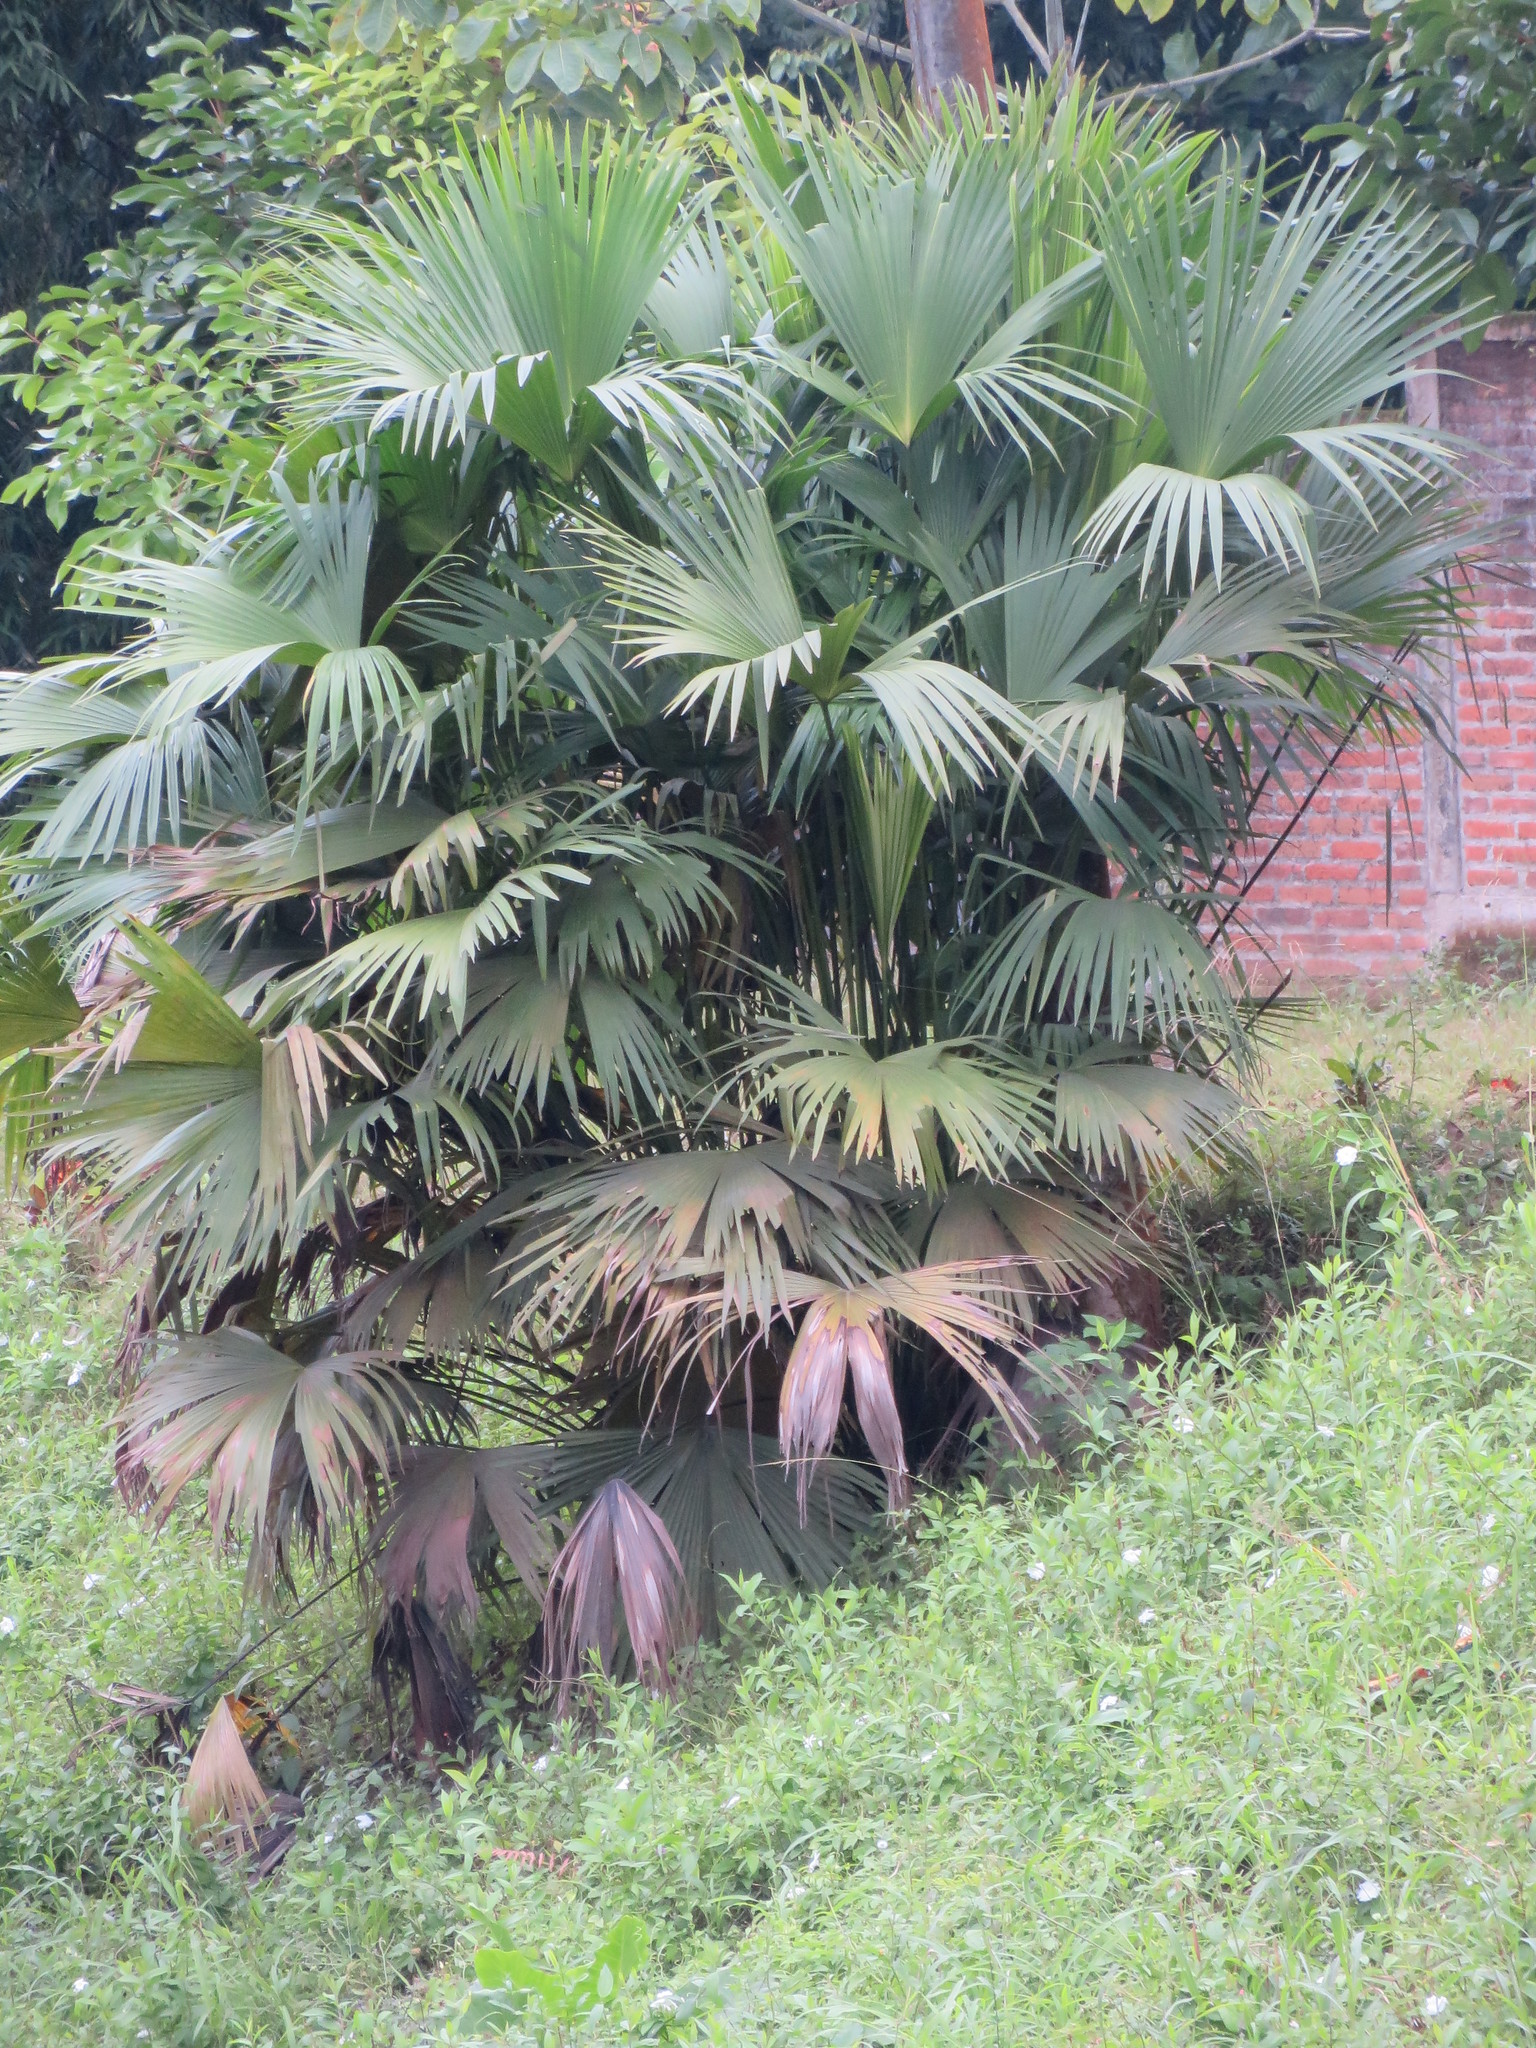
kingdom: Plantae
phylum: Tracheophyta
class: Liliopsida
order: Pandanales
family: Cyclanthaceae
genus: Carludovica
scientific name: Carludovica palmata
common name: Panama hat plant
